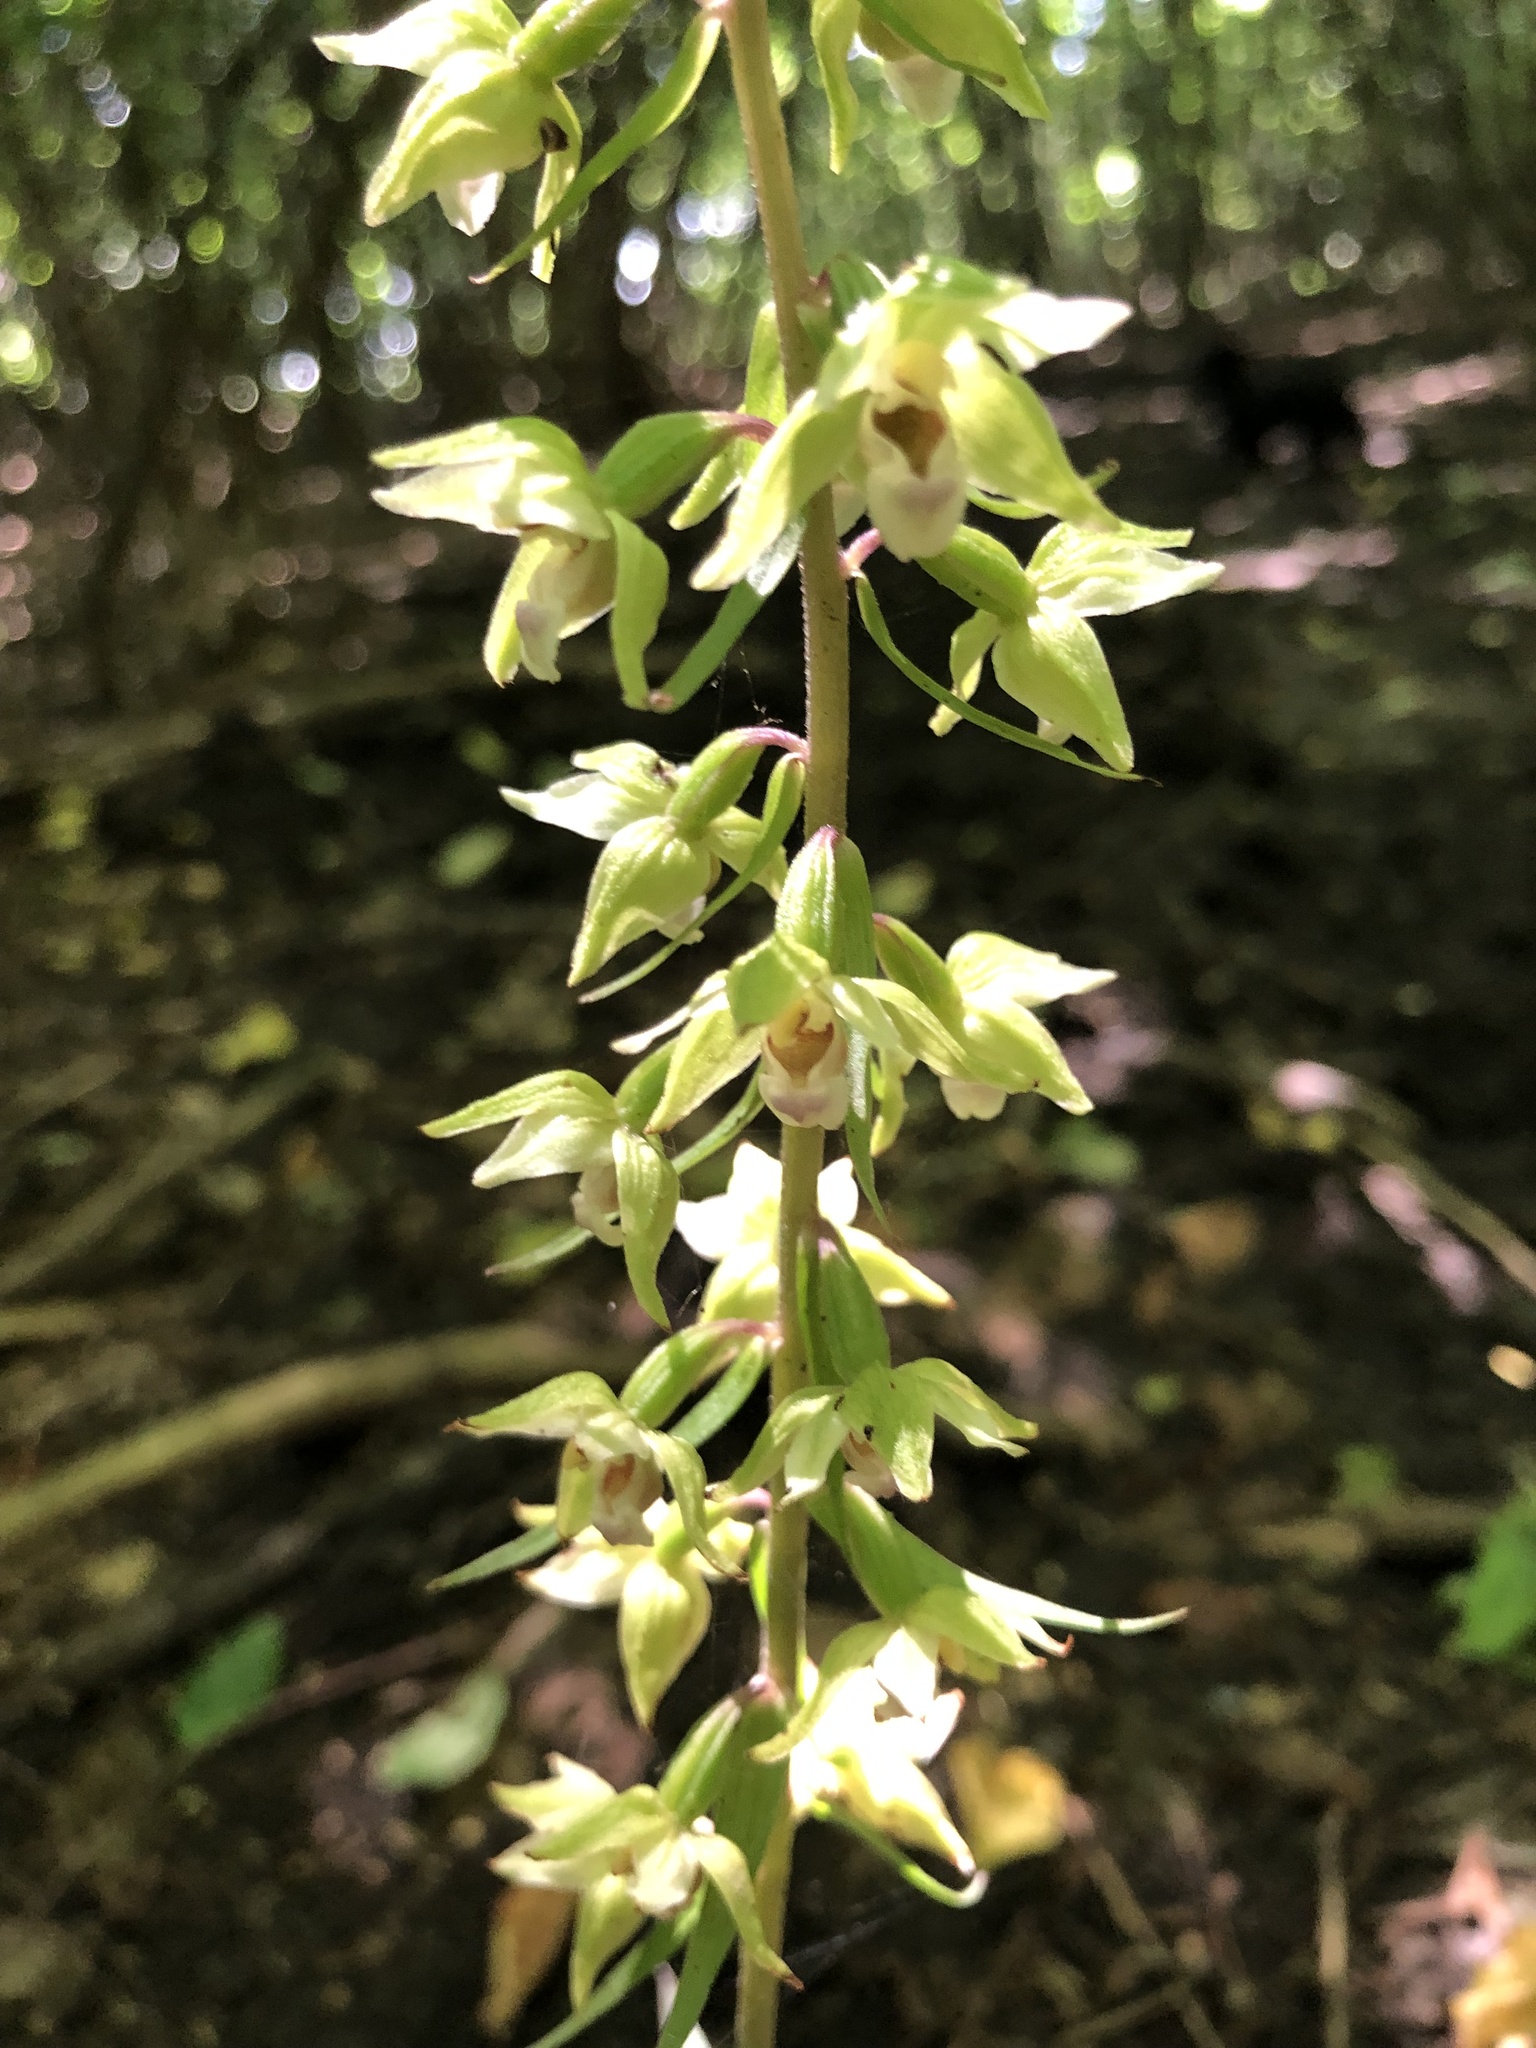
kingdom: Plantae
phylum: Tracheophyta
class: Liliopsida
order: Asparagales
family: Orchidaceae
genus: Epipactis
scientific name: Epipactis purpurata
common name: Violet helleborine
